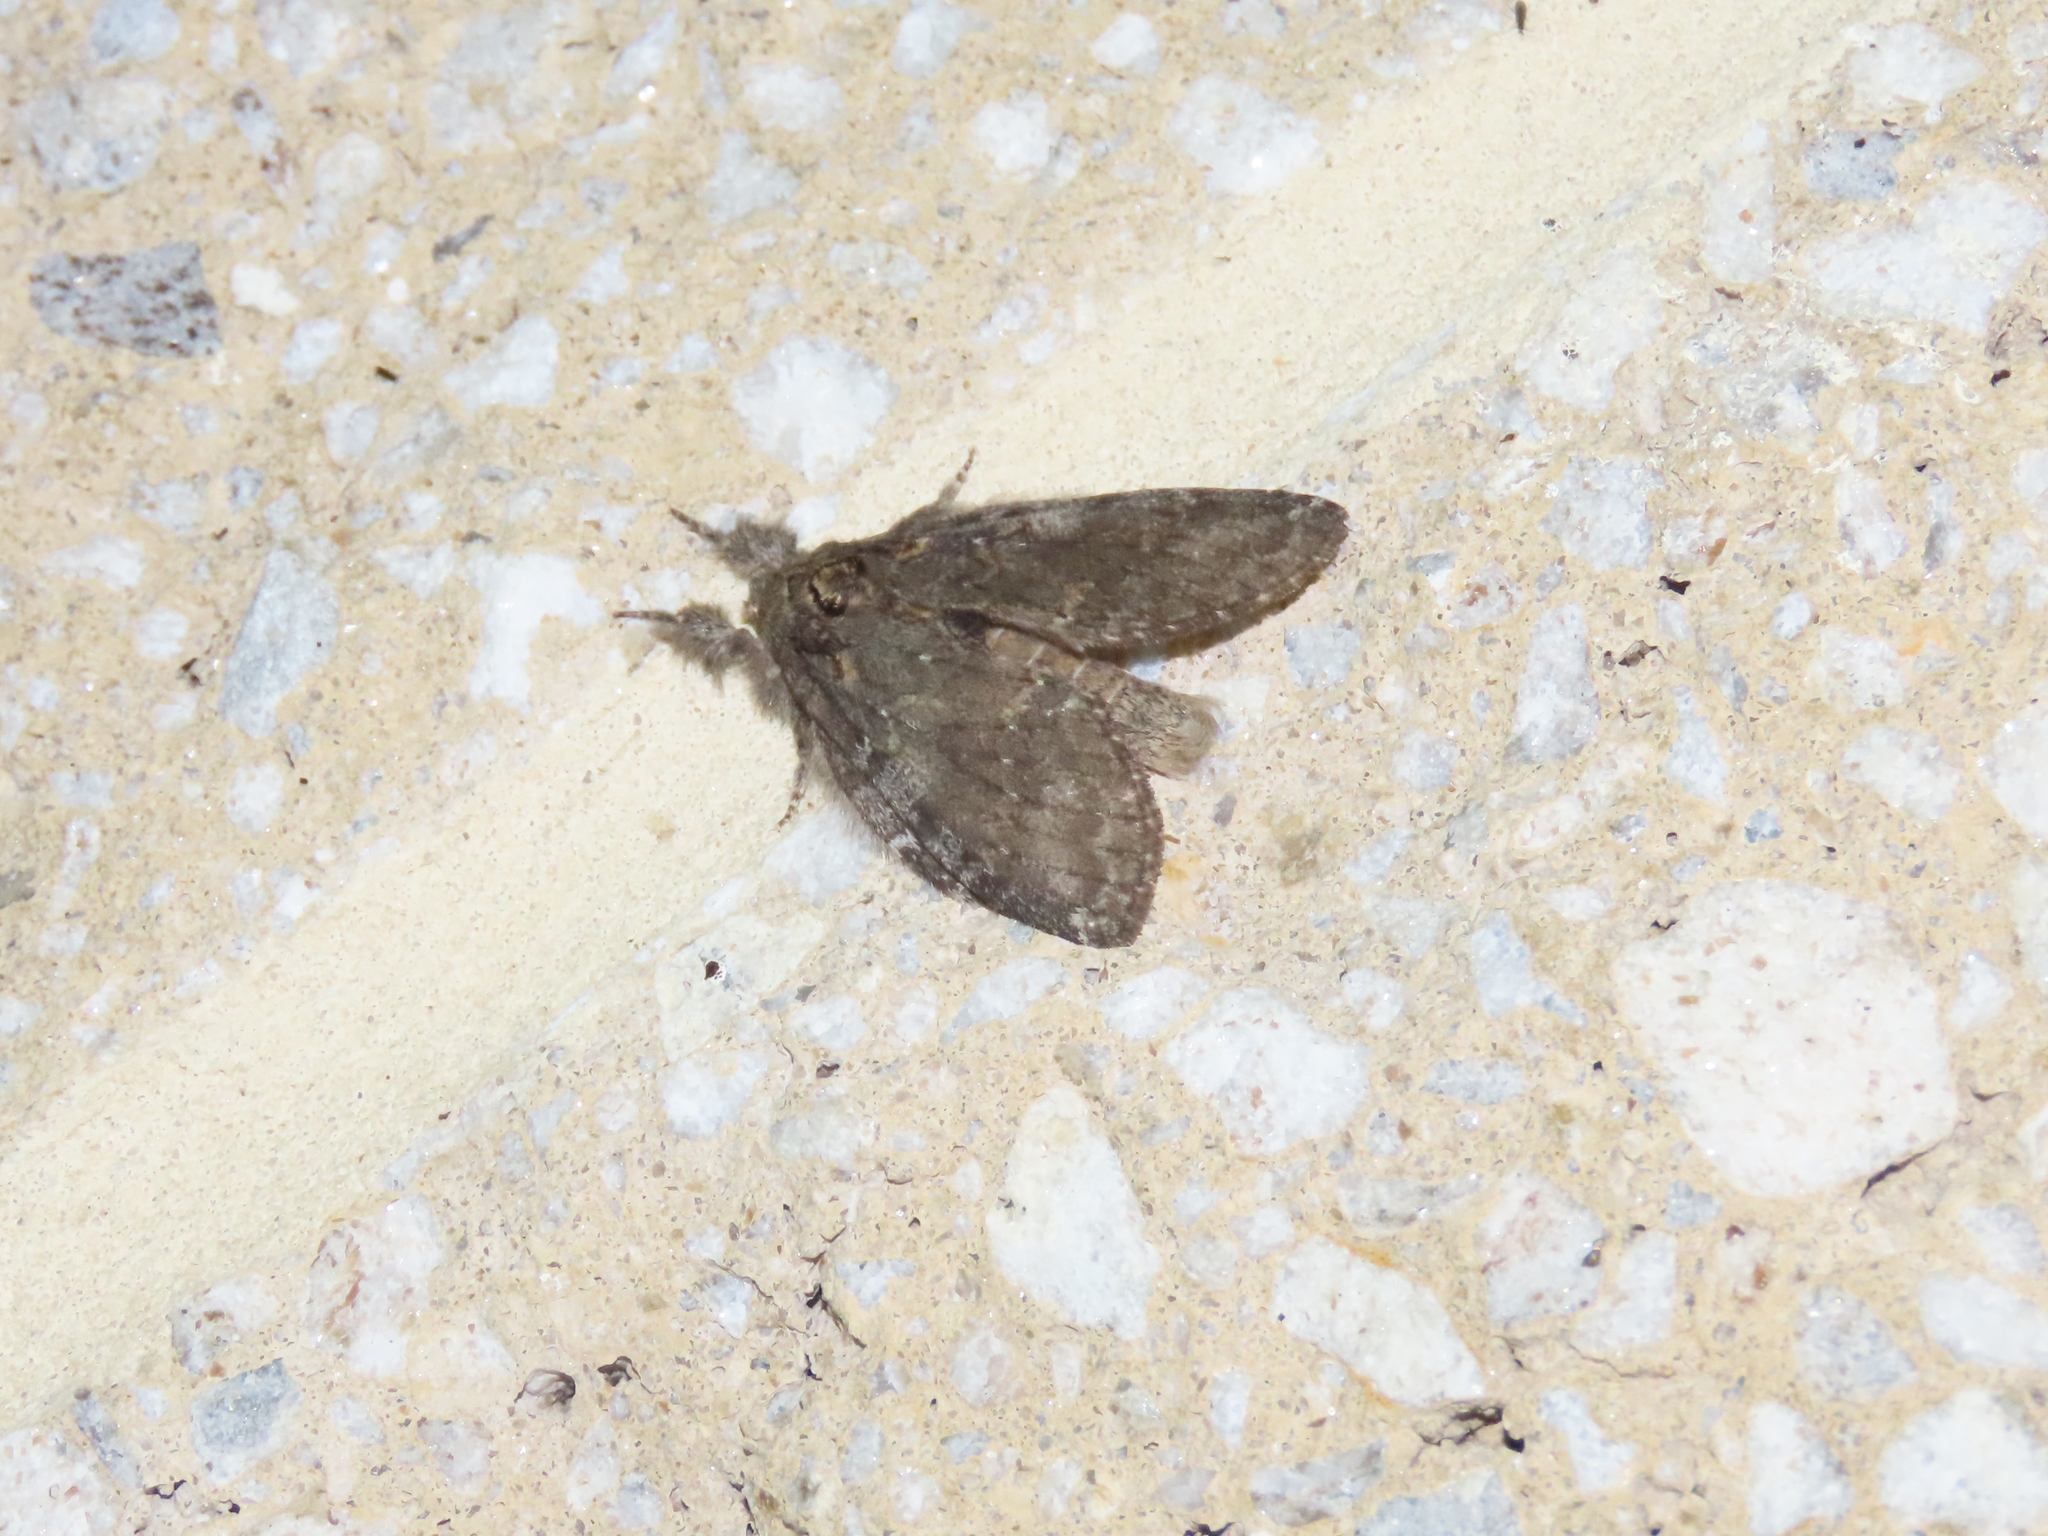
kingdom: Animalia
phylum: Arthropoda
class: Insecta
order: Lepidoptera
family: Notodontidae
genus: Peridea
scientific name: Peridea angulosa
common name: Angulose prominent
